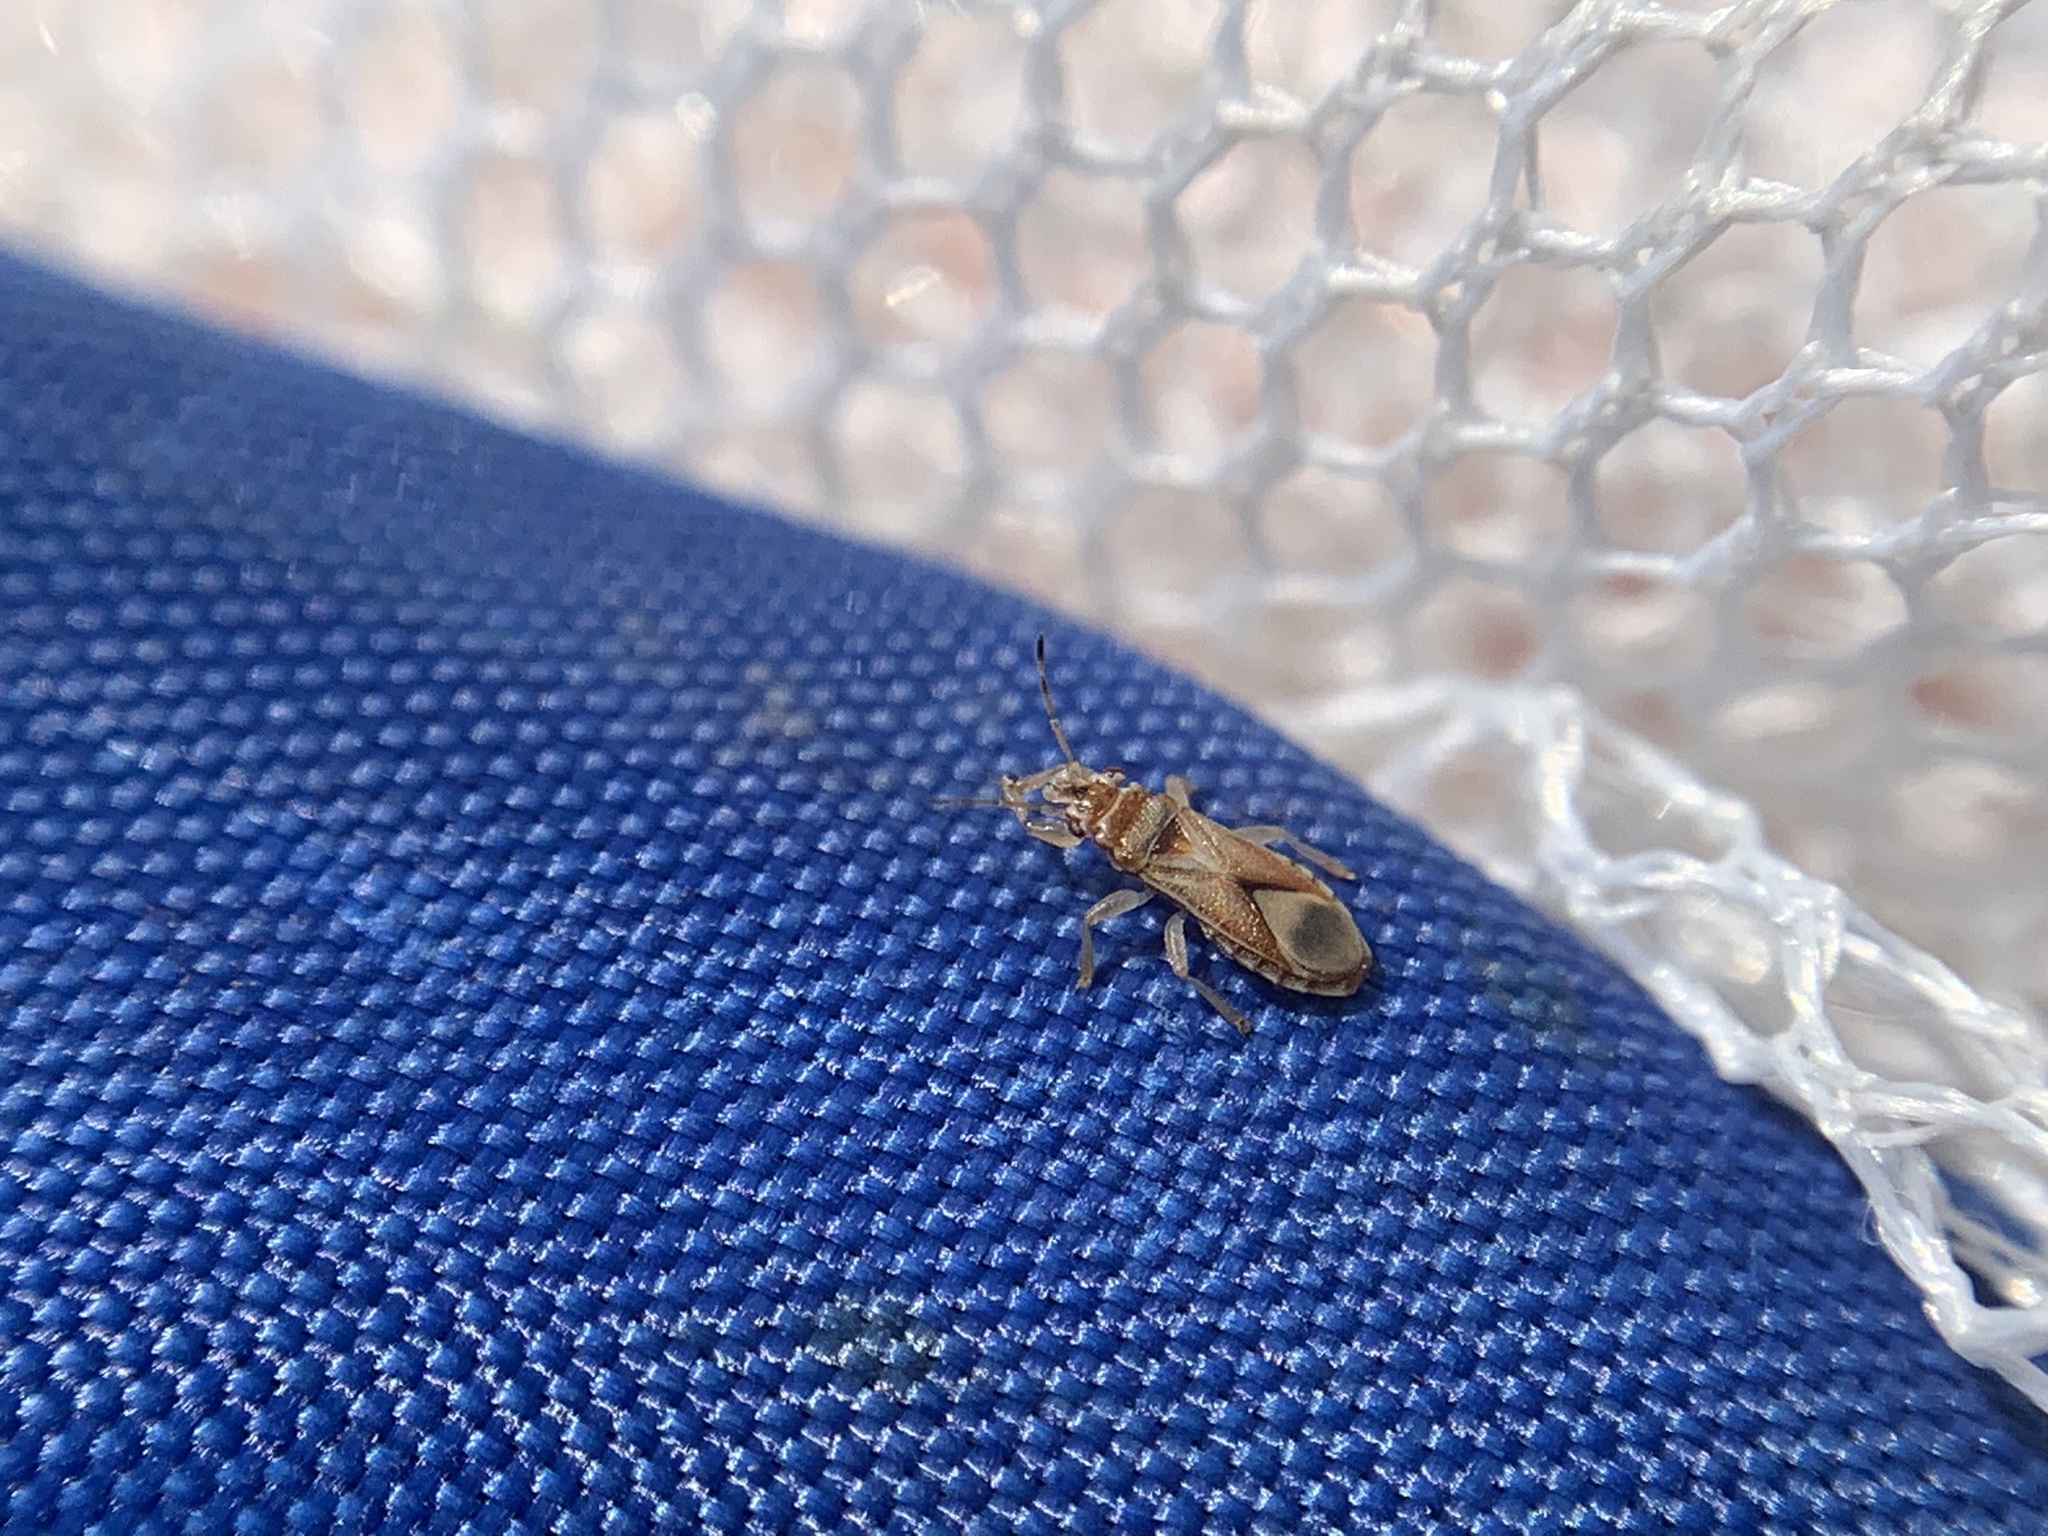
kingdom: Animalia
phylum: Arthropoda
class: Insecta
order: Hemiptera
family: Thaumastocoridae
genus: Thaumastocoris
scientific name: Thaumastocoris peregrinus
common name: Bronze bug
